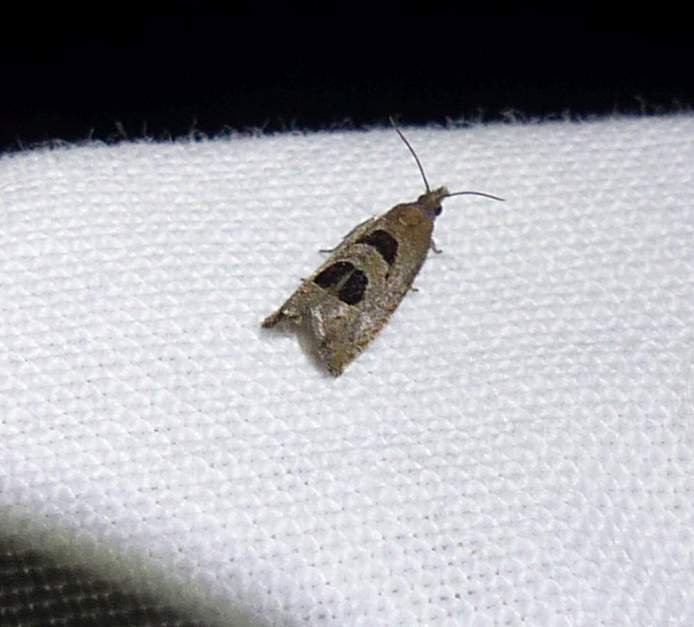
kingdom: Animalia
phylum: Arthropoda
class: Insecta
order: Lepidoptera
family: Tortricidae
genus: Eucosma
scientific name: Eucosma tomonana
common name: Aster-head eucosma moth
